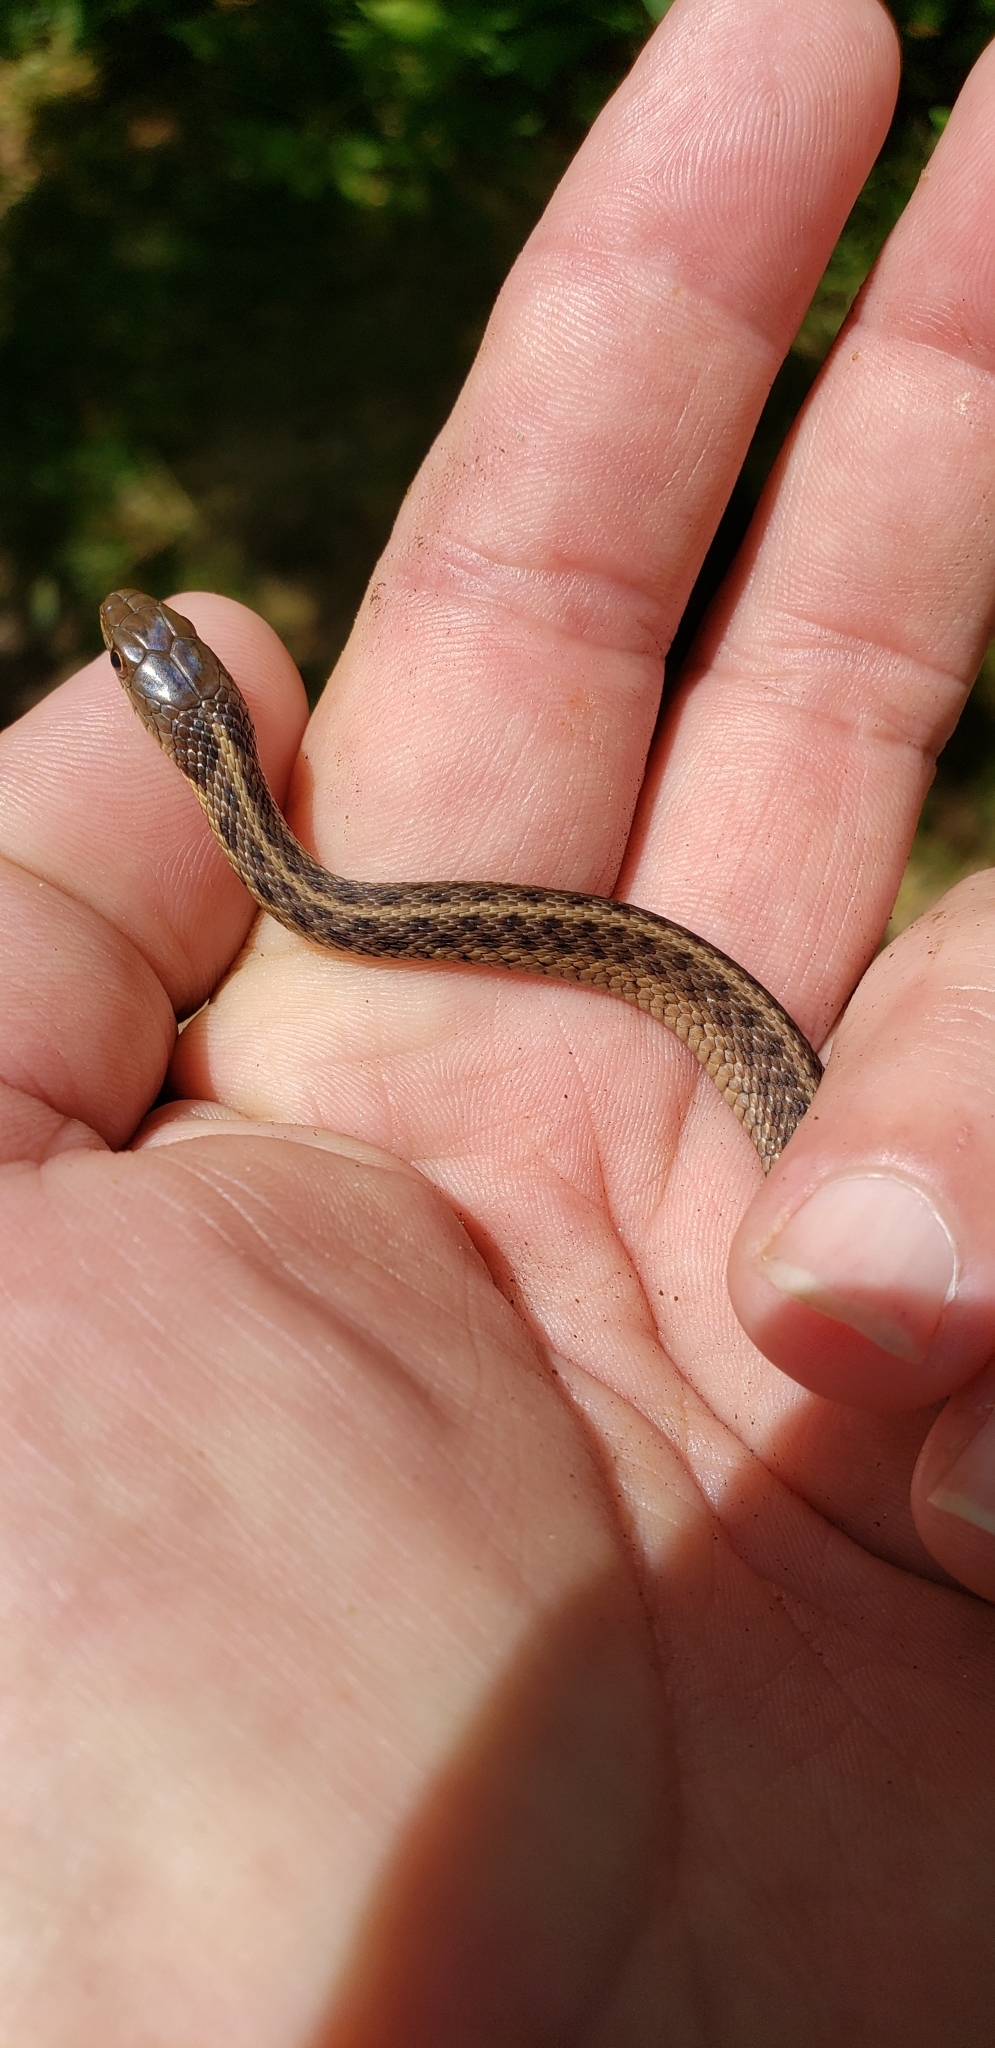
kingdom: Animalia
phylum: Chordata
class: Squamata
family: Colubridae
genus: Thamnophis
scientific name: Thamnophis sirtalis
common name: Common garter snake
